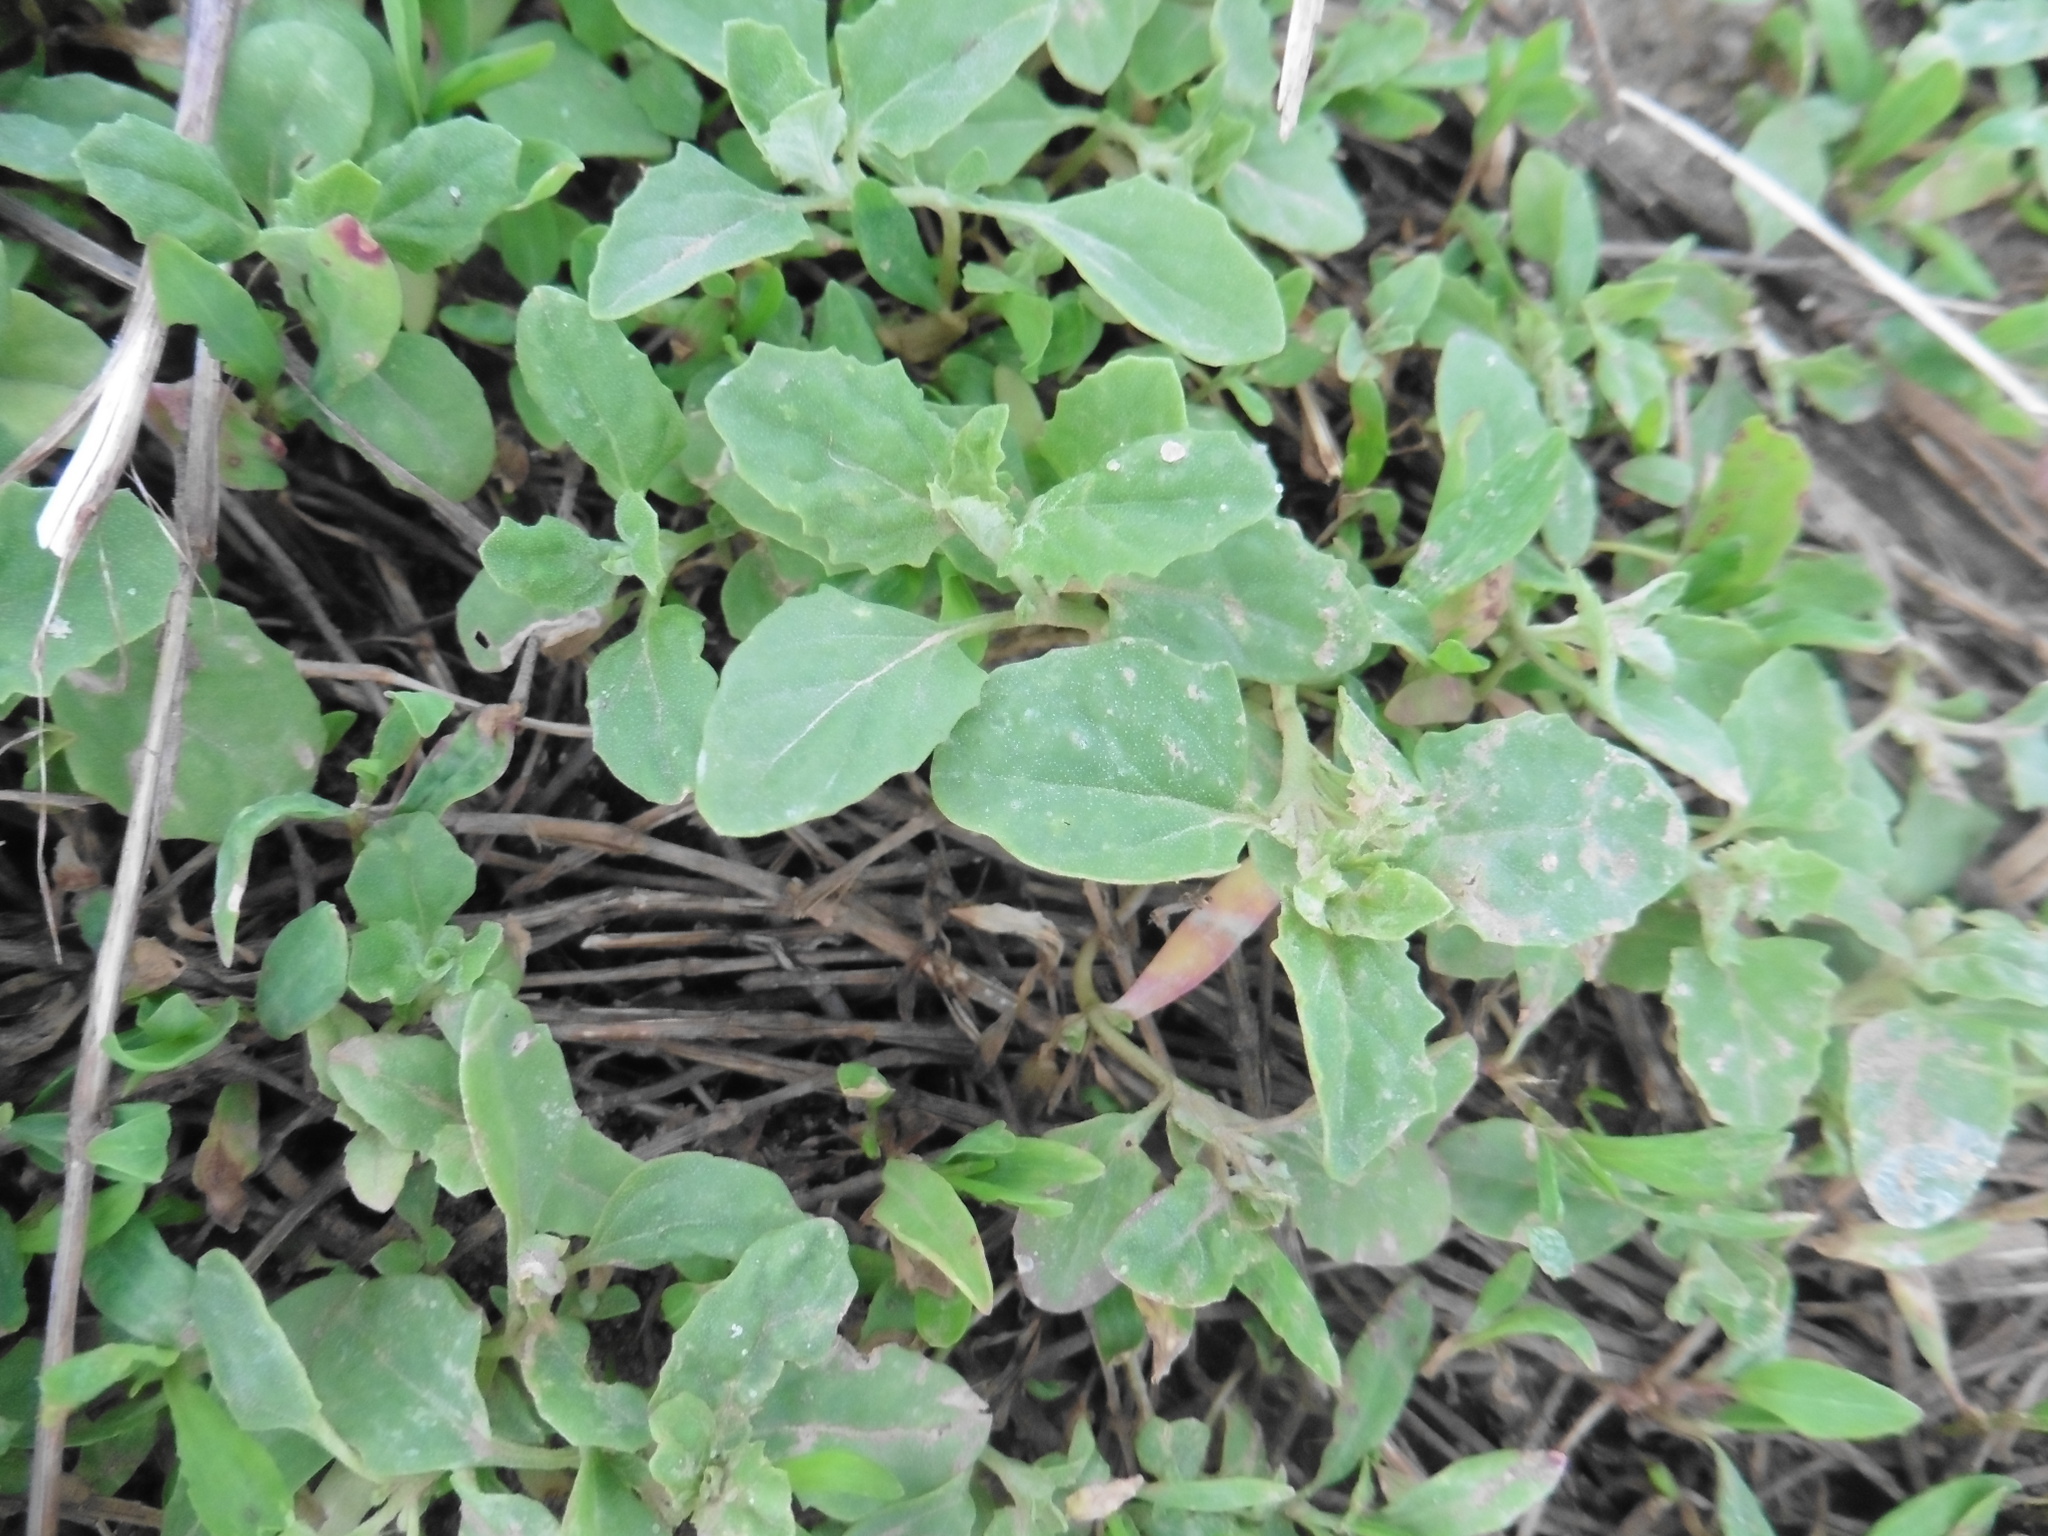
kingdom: Plantae
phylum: Tracheophyta
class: Magnoliopsida
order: Caryophyllales
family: Amaranthaceae
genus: Atriplex
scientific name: Atriplex tatarica
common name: Tatarian orache
